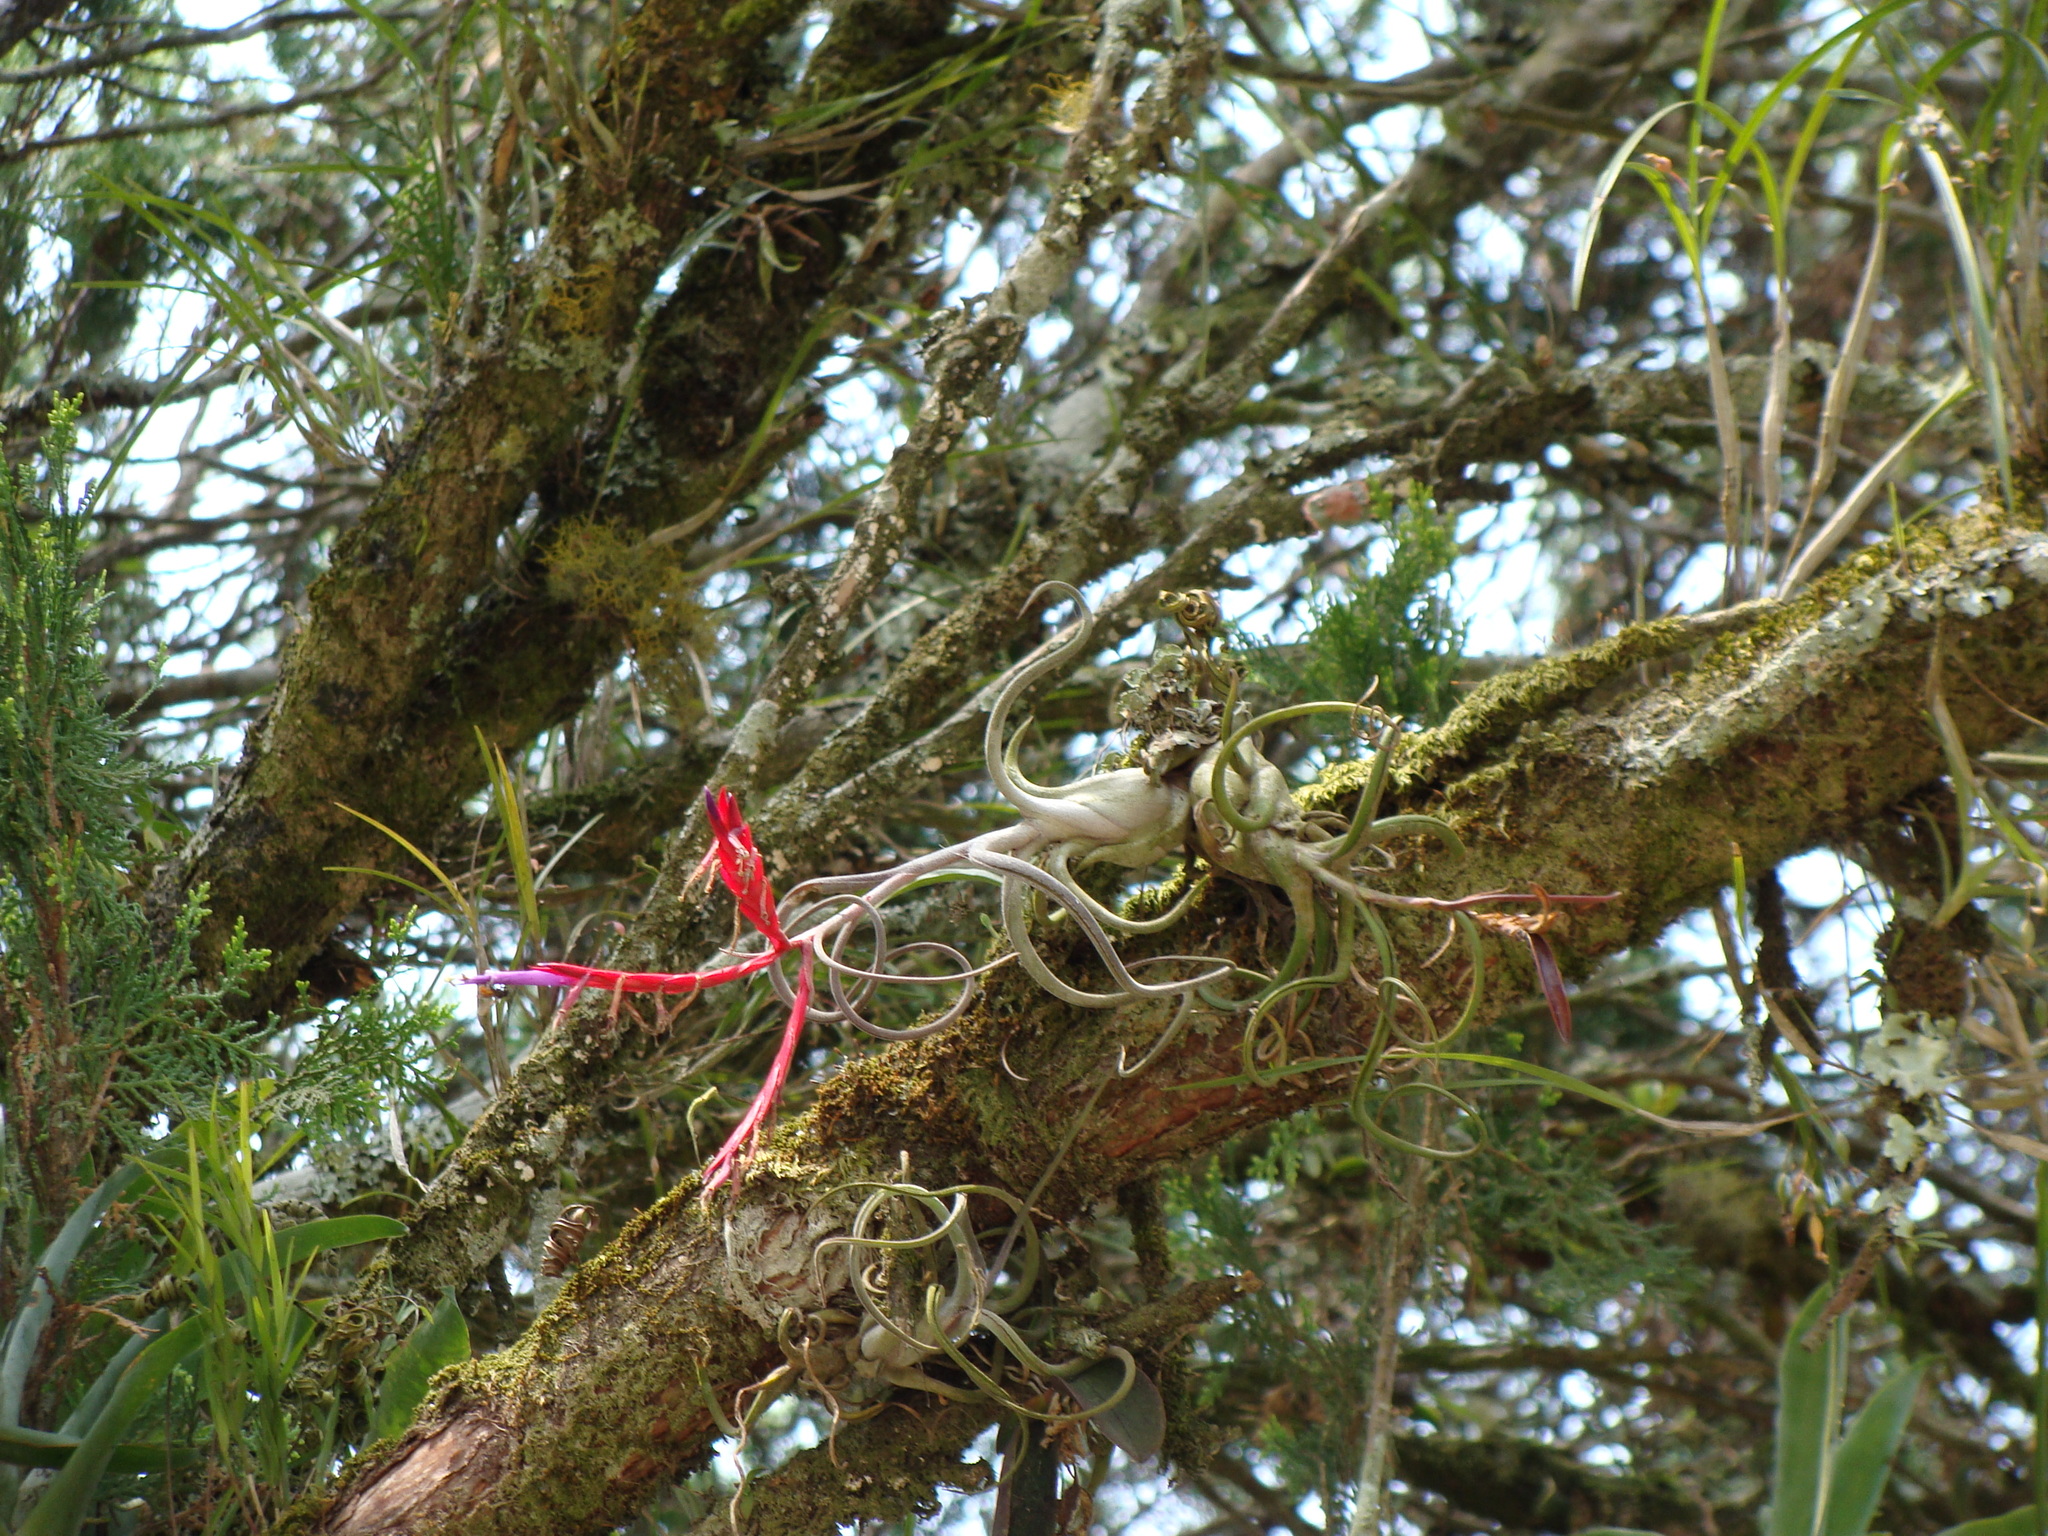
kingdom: Plantae
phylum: Tracheophyta
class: Liliopsida
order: Poales
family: Bromeliaceae
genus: Tillandsia
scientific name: Tillandsia caput-medusae
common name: Octopus plant
